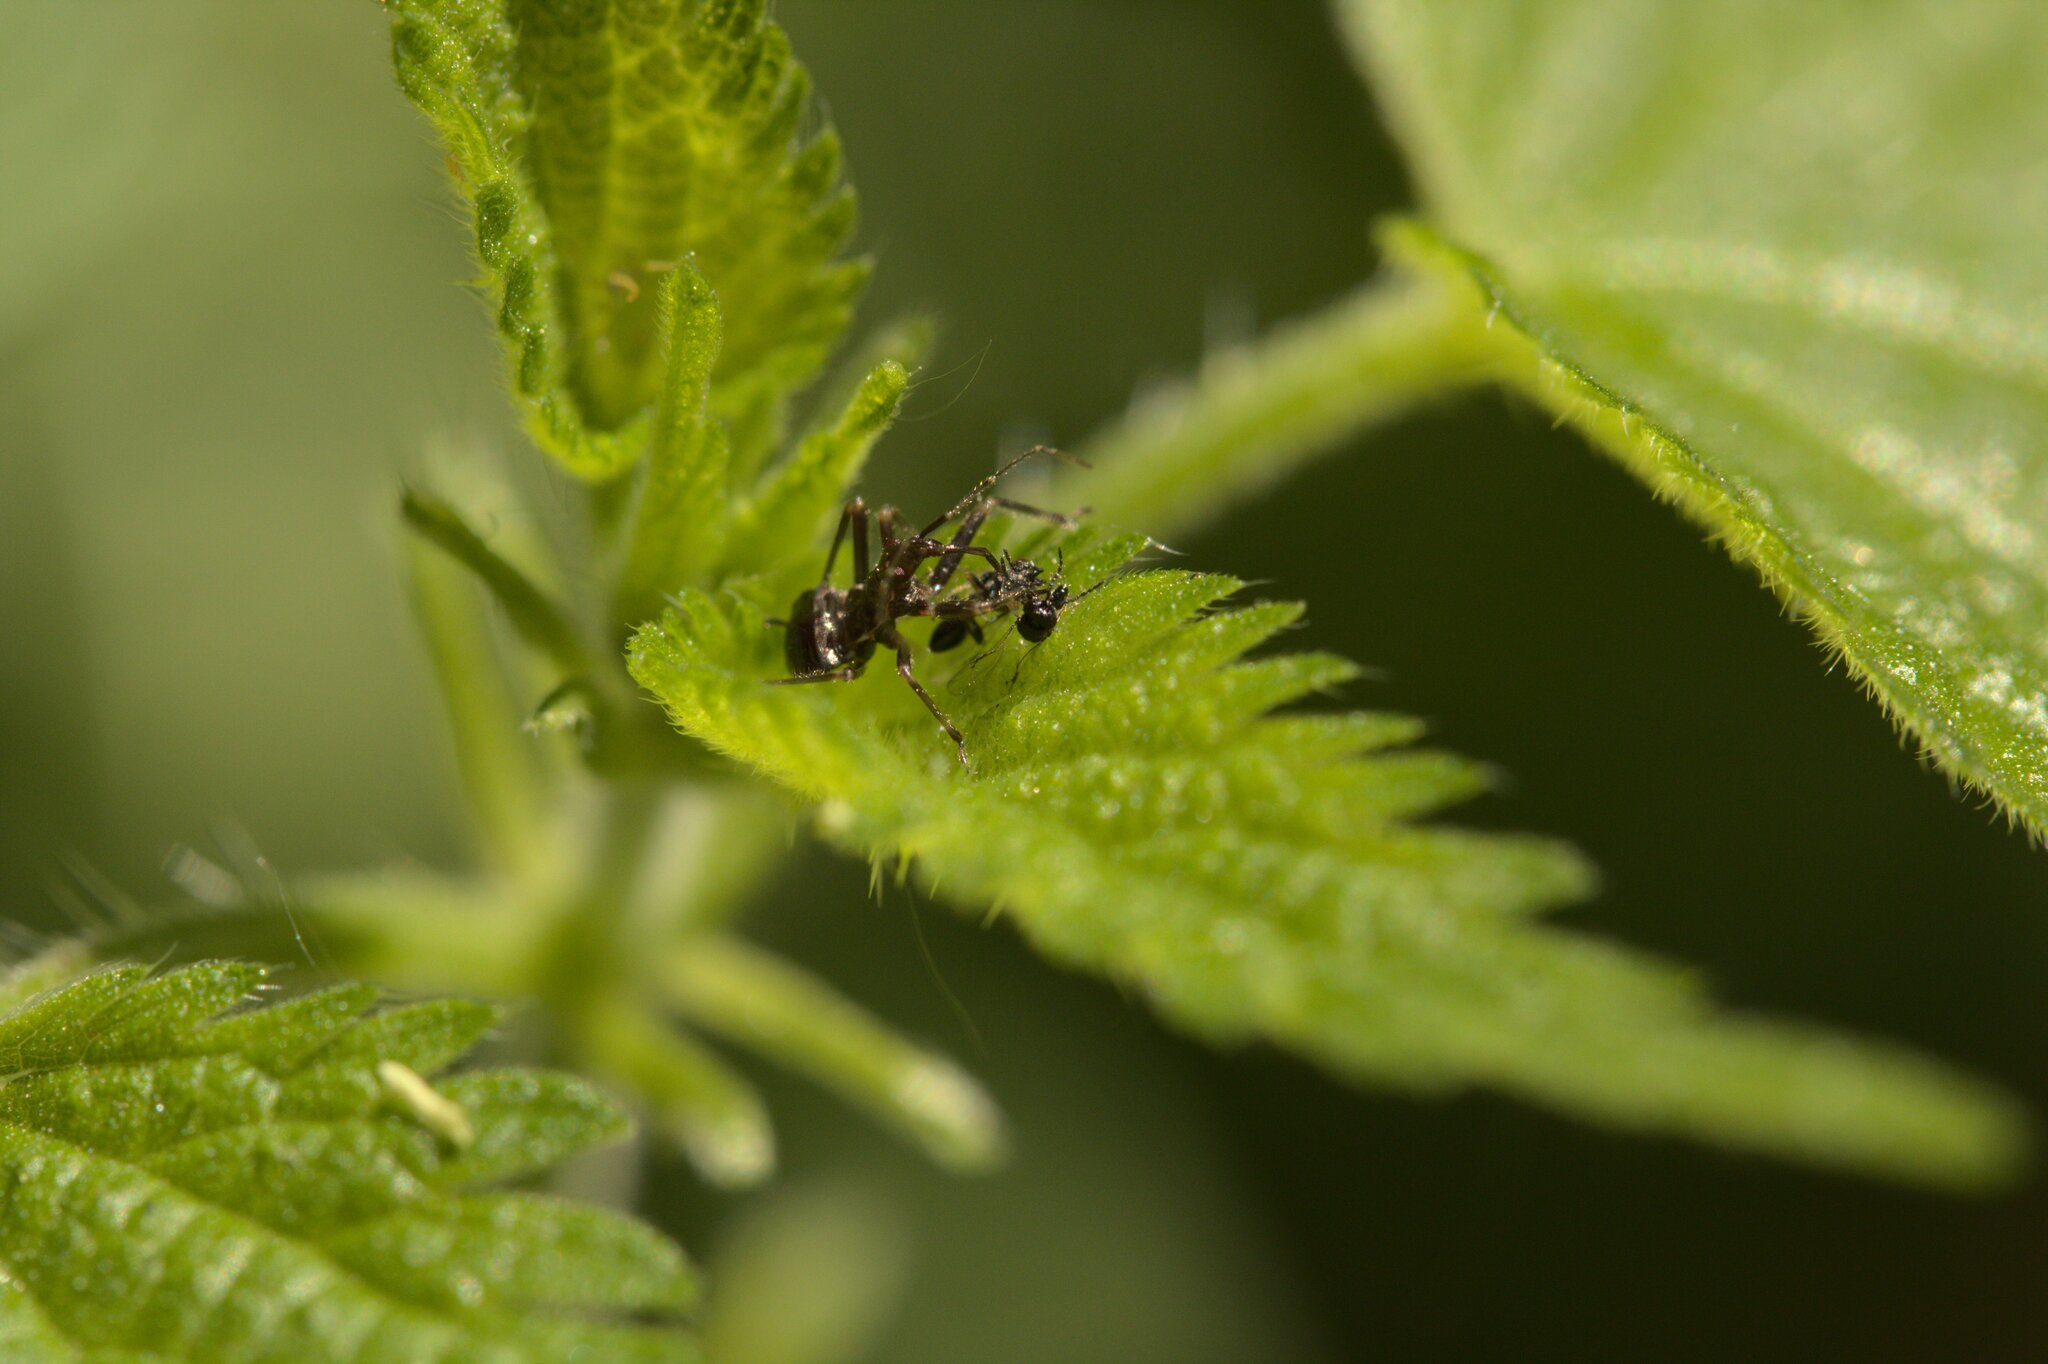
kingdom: Animalia
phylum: Arthropoda
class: Insecta
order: Hemiptera
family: Nabidae
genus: Himacerus
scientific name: Himacerus apterus
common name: Tree damsel bug
